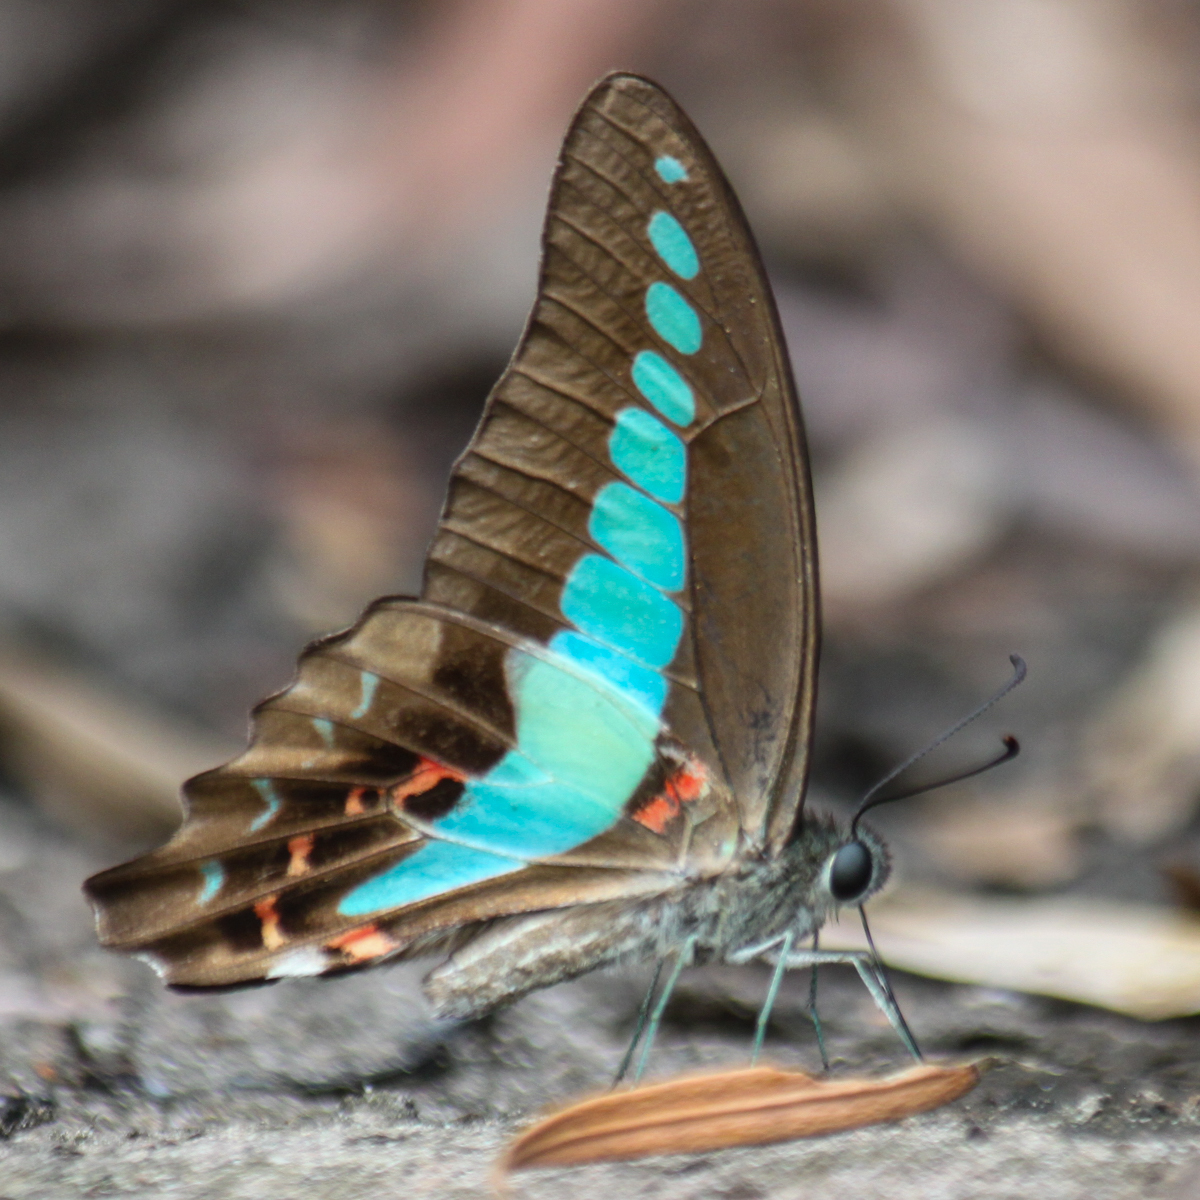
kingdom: Fungi
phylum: Ascomycota
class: Sordariomycetes
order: Microascales
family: Microascaceae
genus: Graphium
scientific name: Graphium sarpedon
